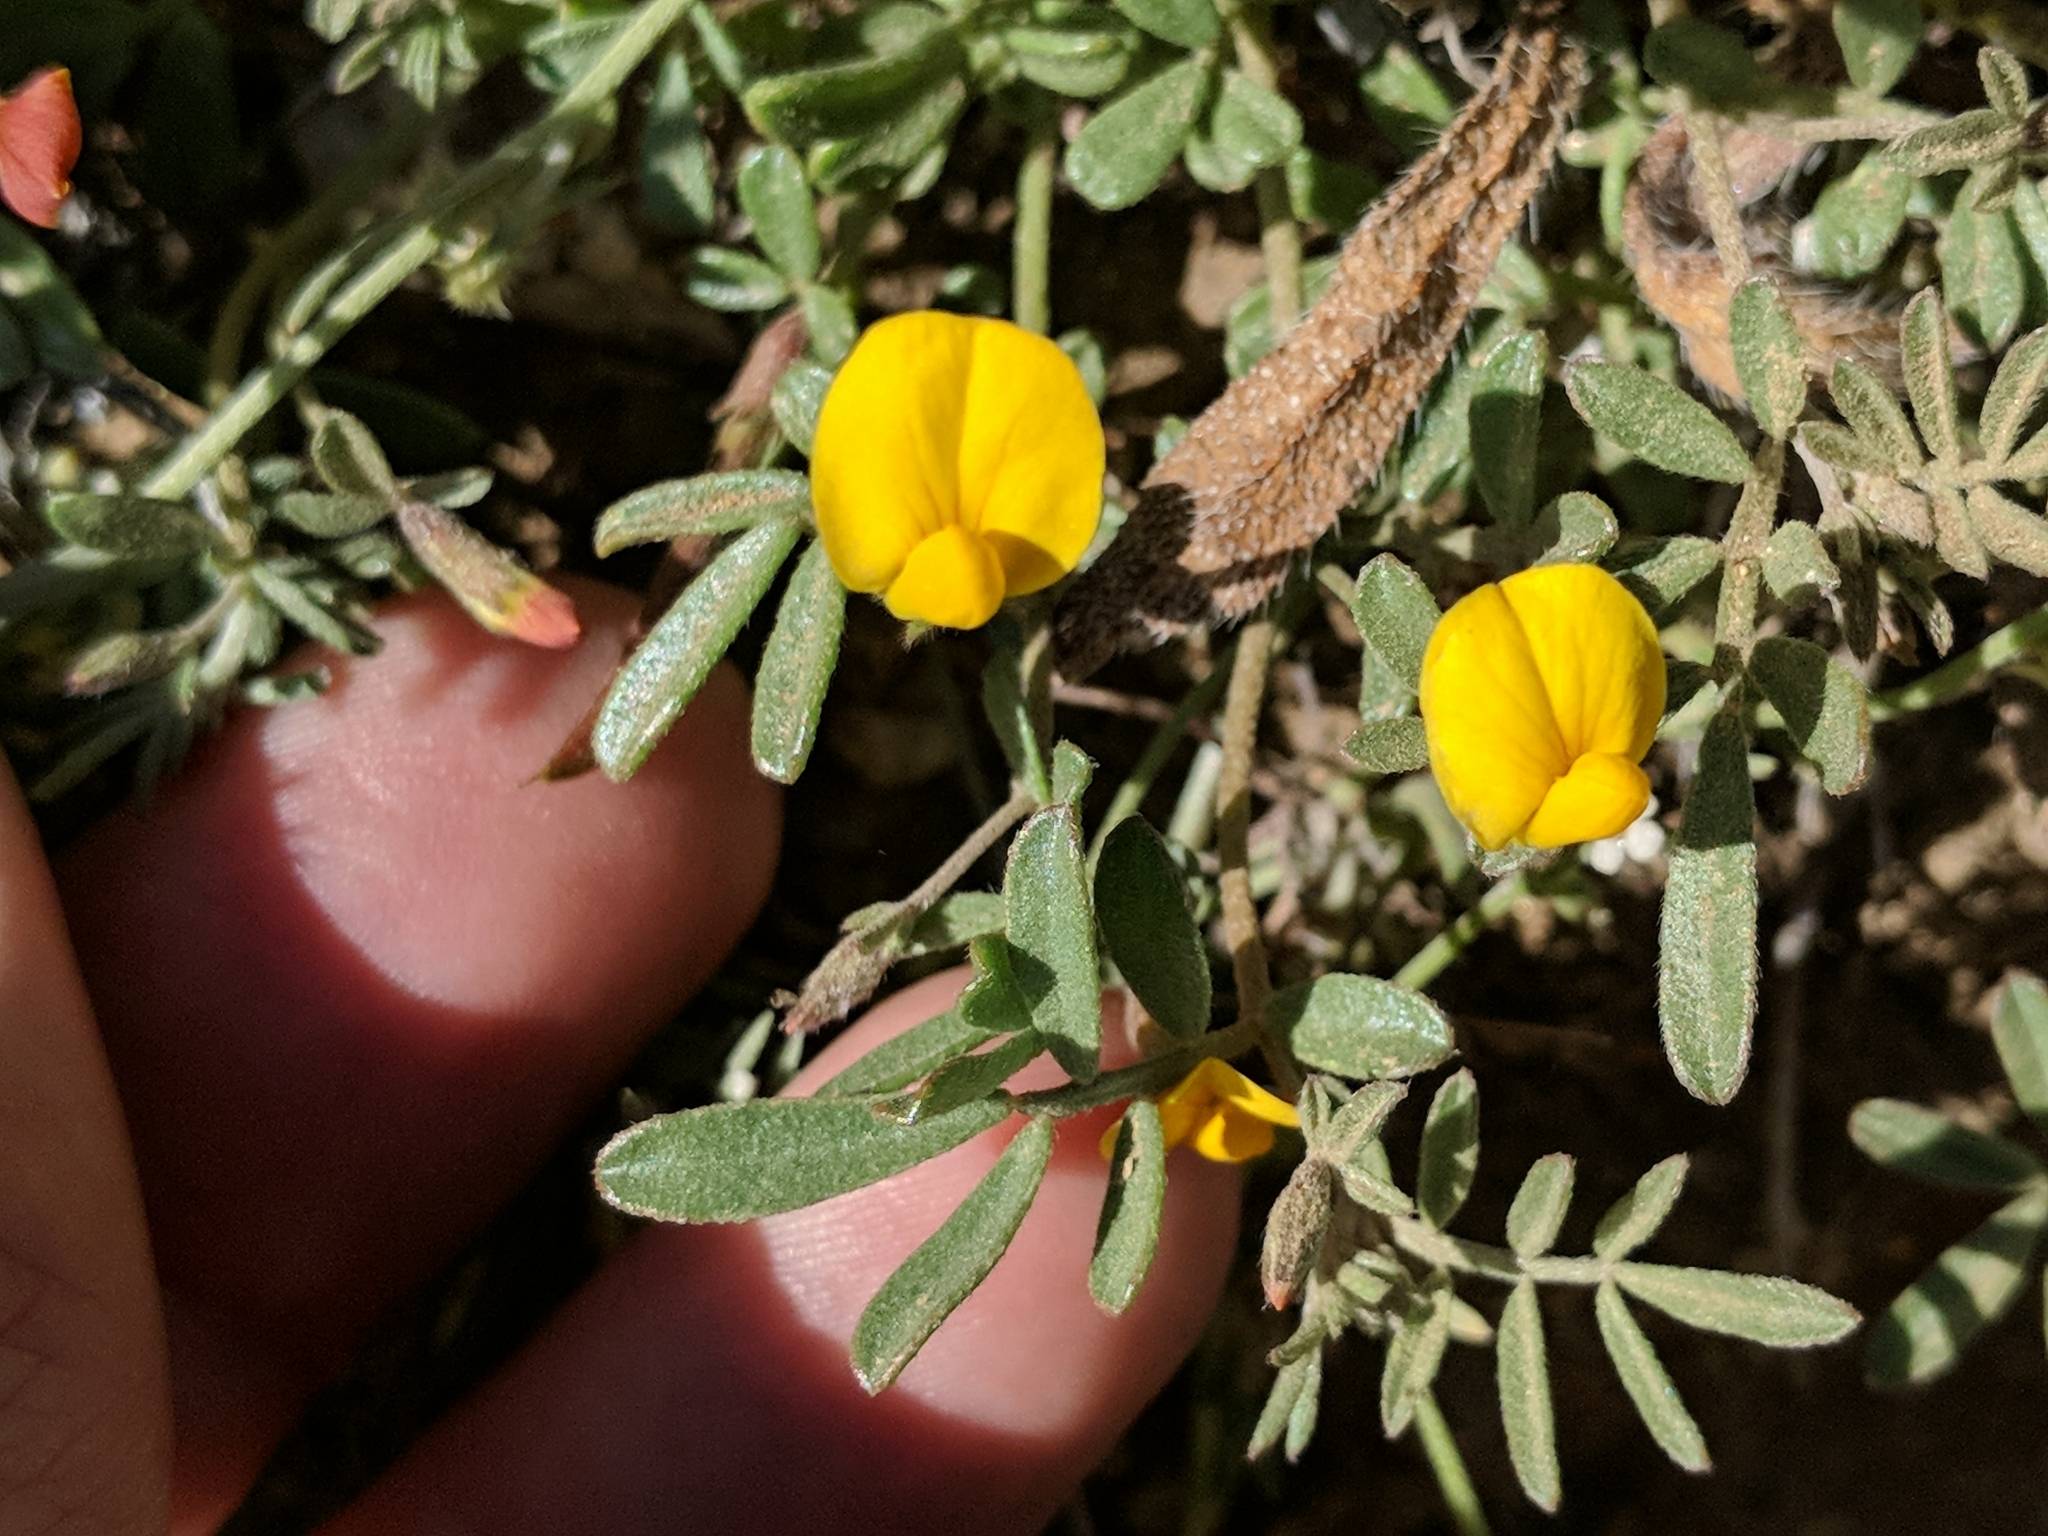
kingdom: Plantae
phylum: Tracheophyta
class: Magnoliopsida
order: Fabales
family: Fabaceae
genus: Acmispon
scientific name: Acmispon strigosus
